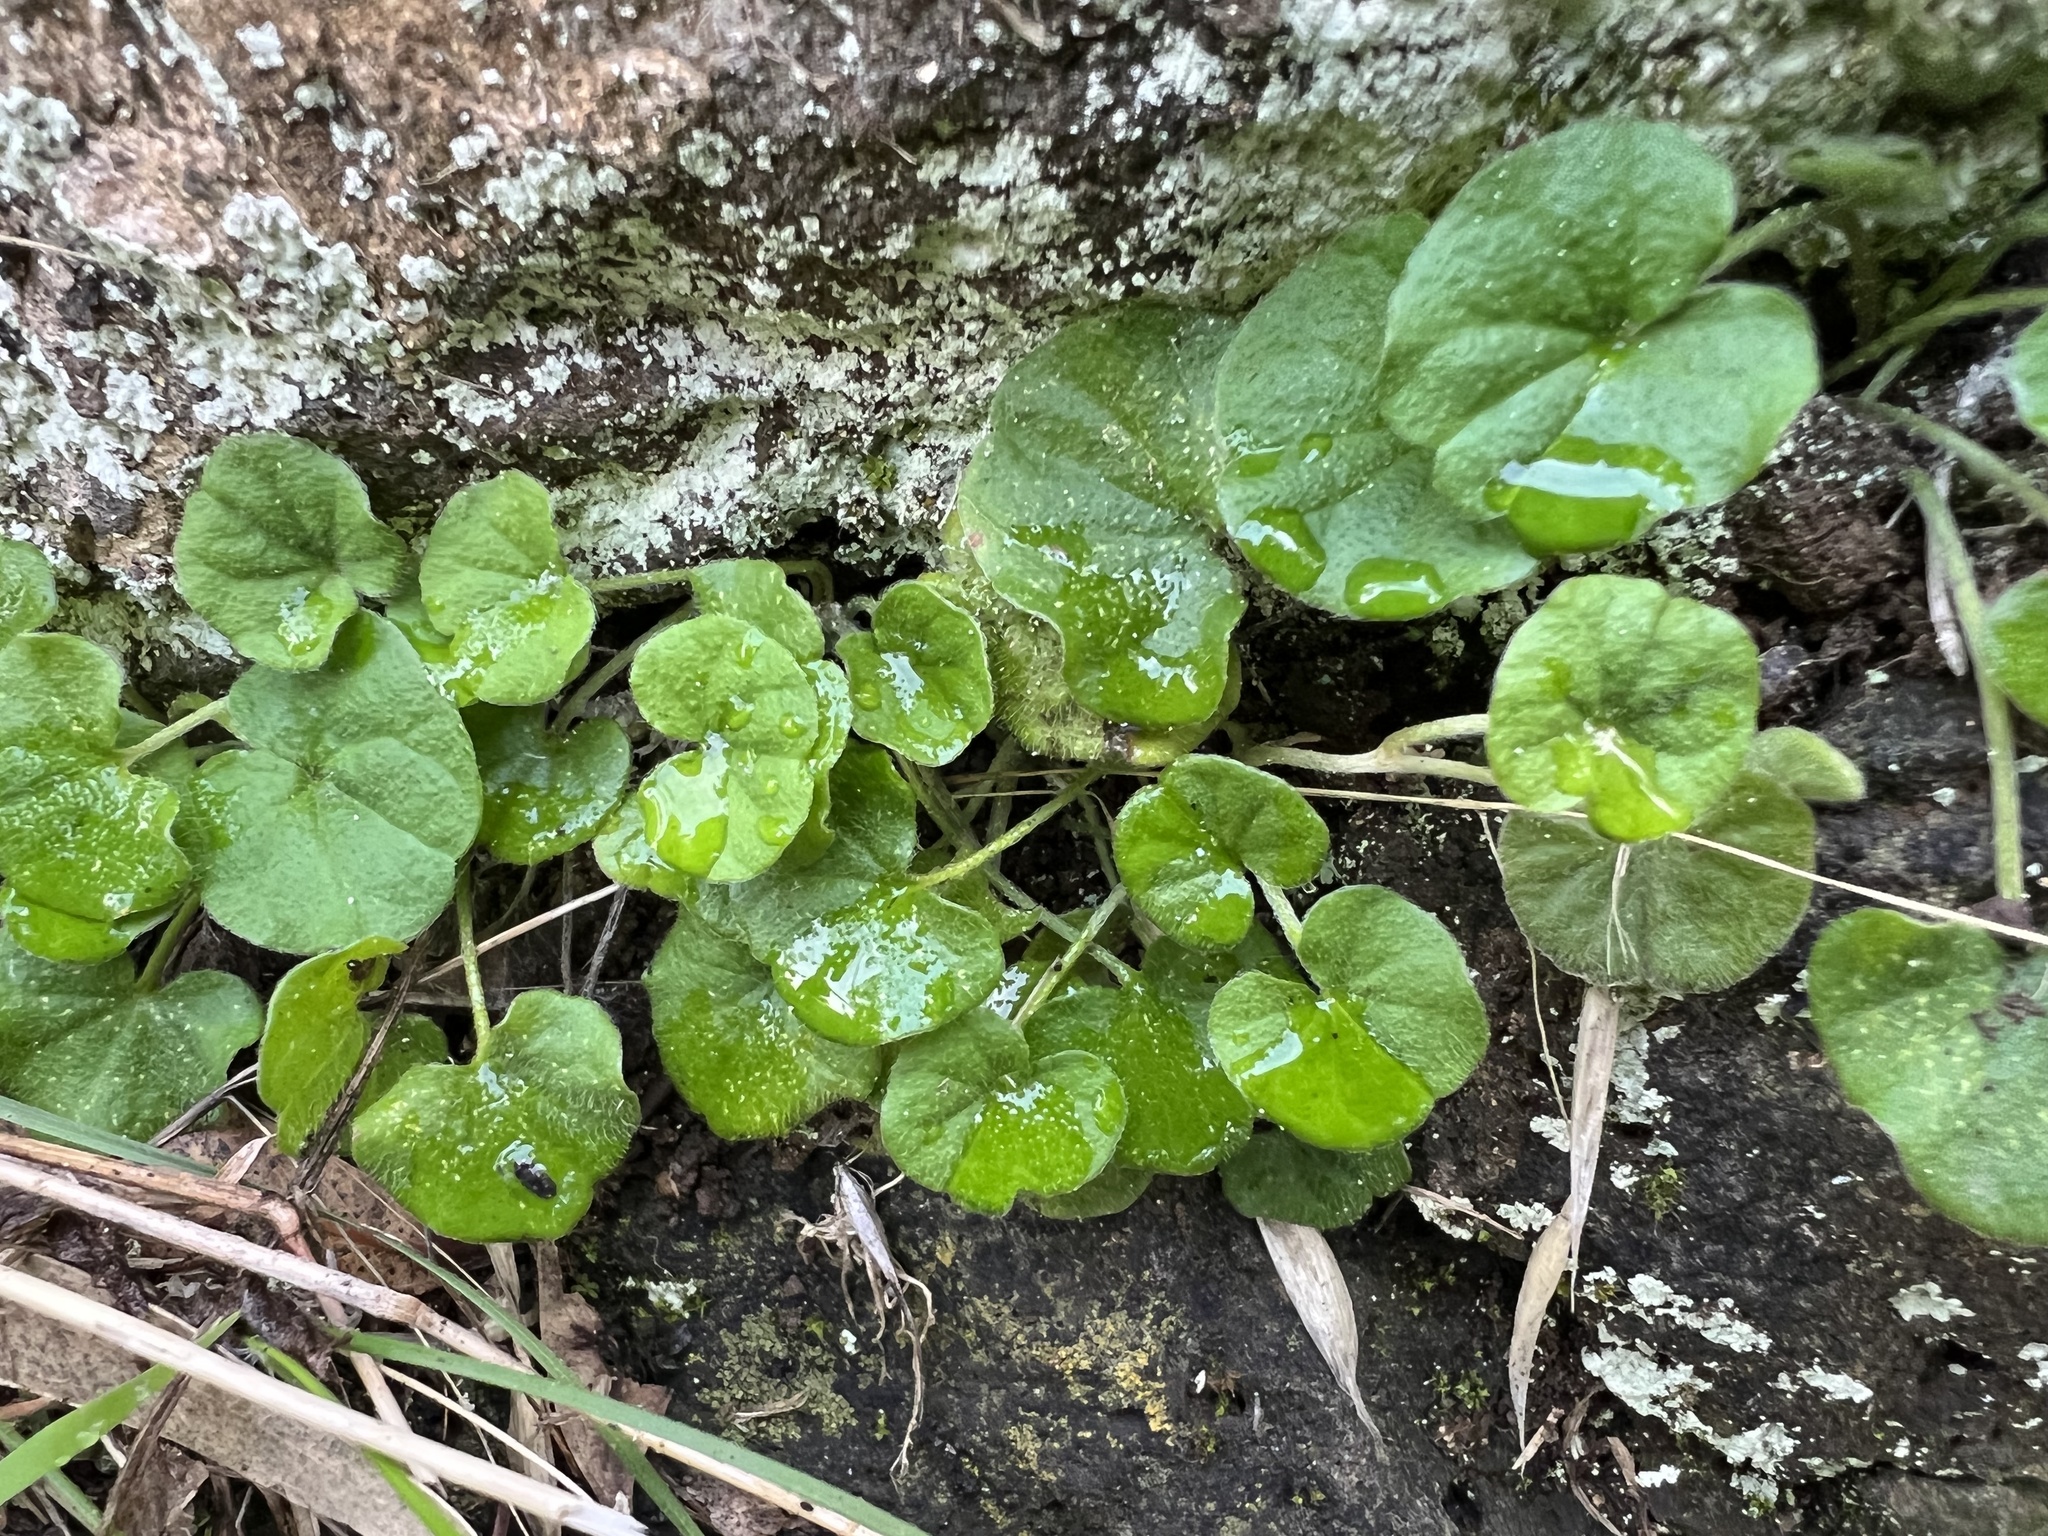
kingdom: Plantae
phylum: Tracheophyta
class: Magnoliopsida
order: Solanales
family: Convolvulaceae
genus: Dichondra
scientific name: Dichondra repens
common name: Kidneyweed
